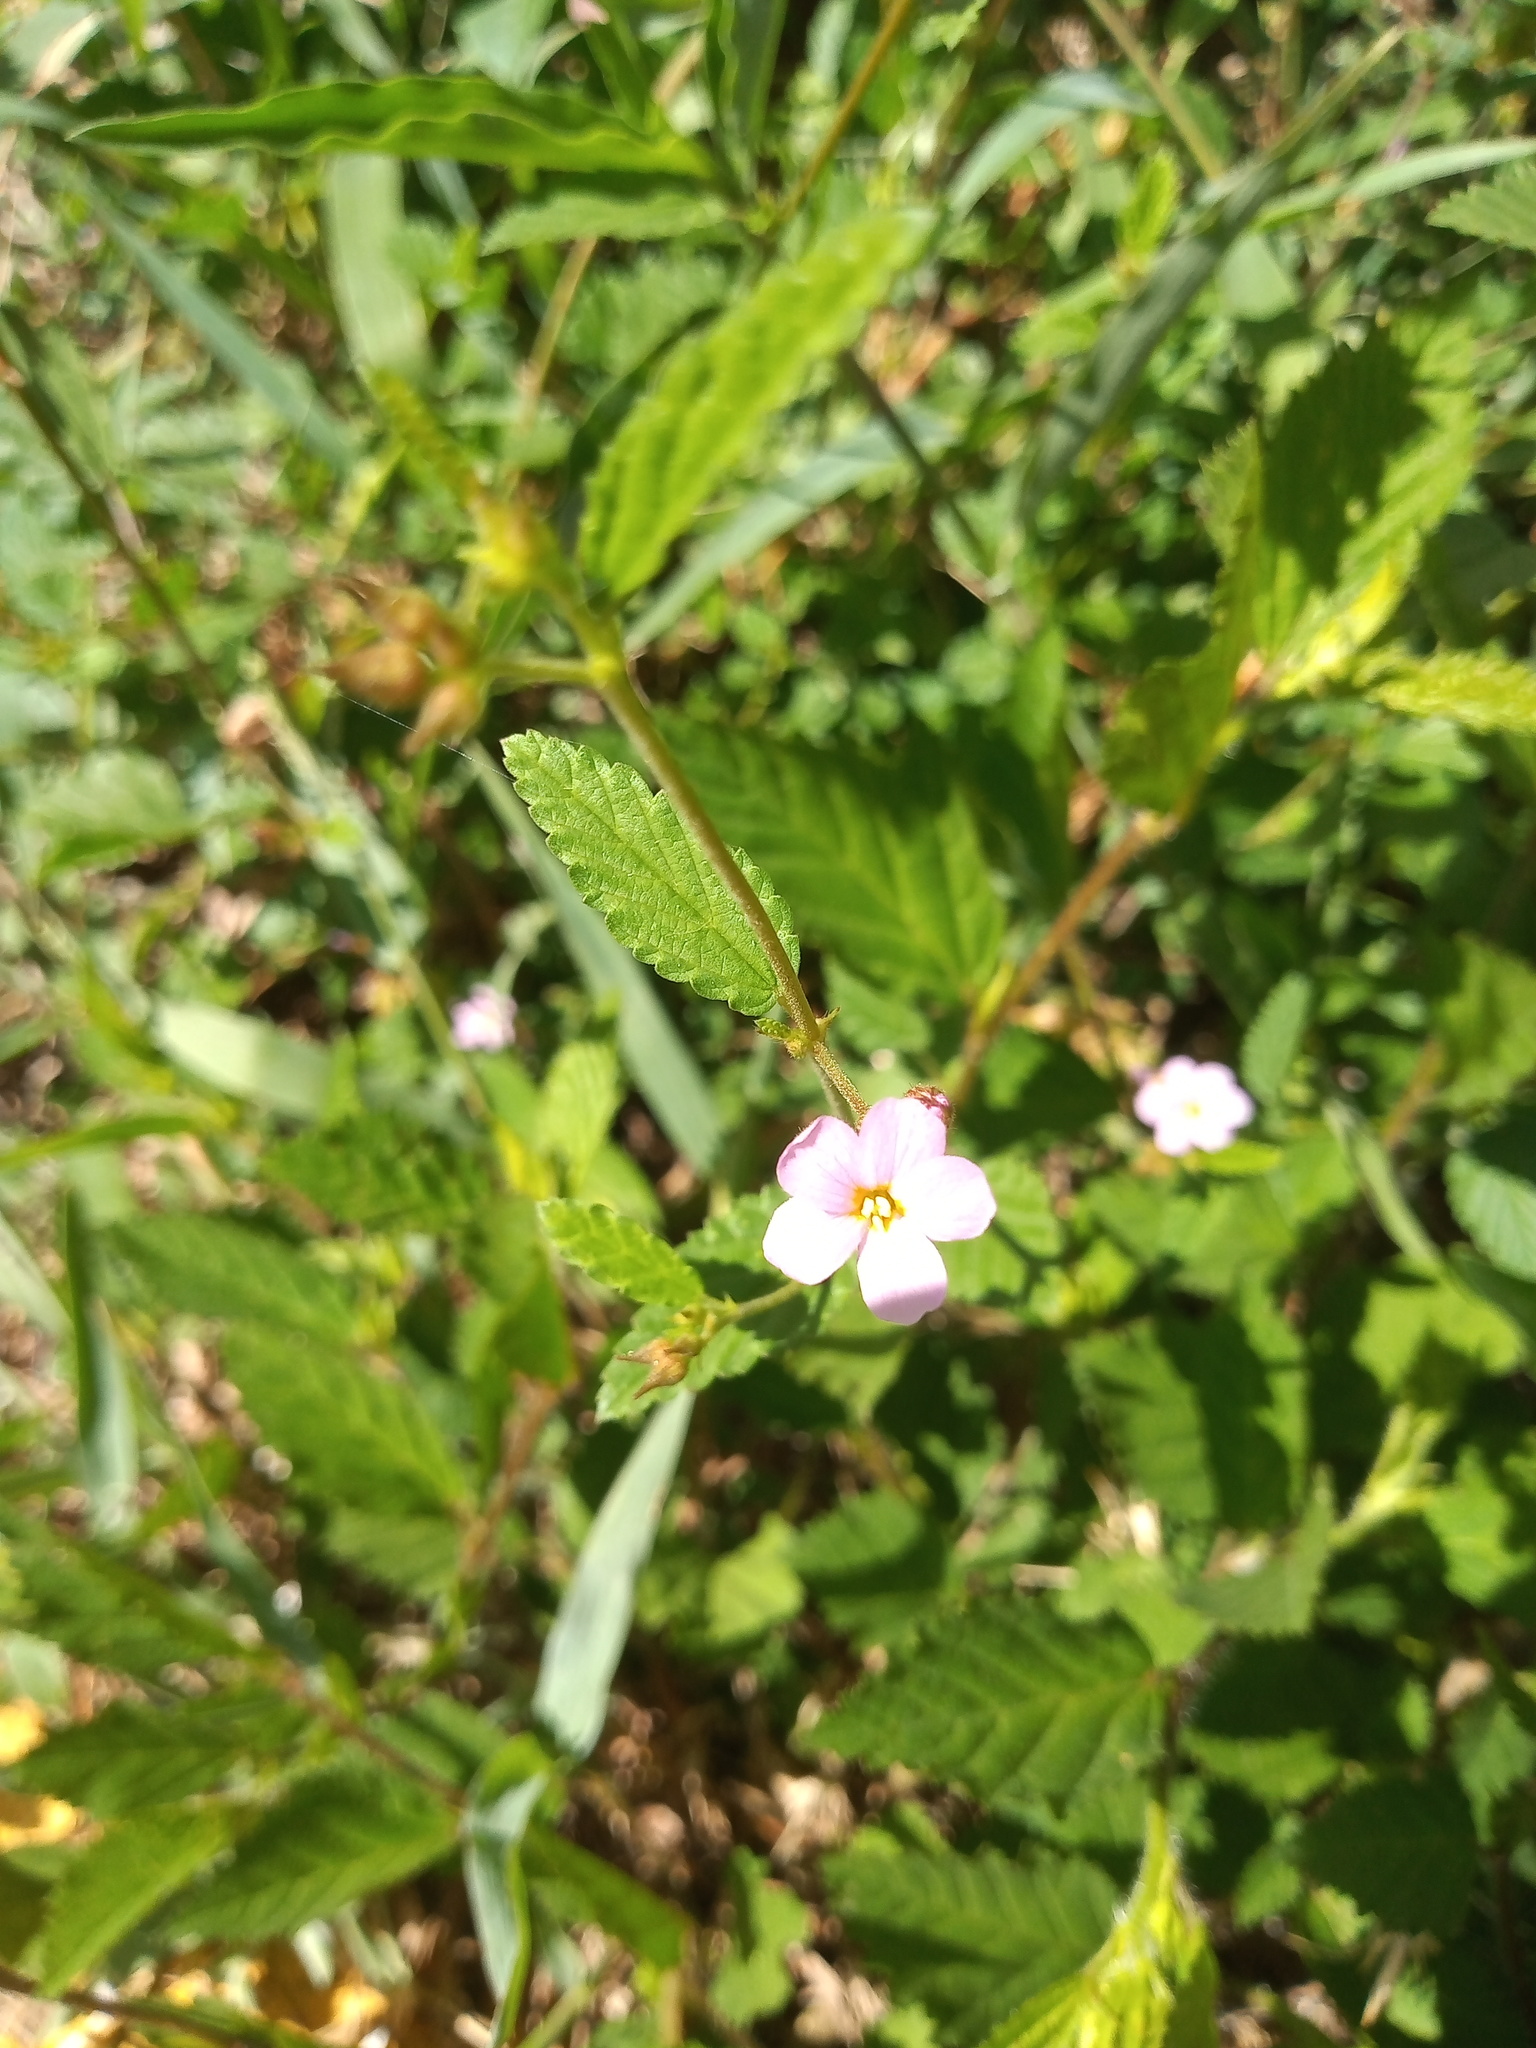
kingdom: Plantae
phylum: Tracheophyta
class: Magnoliopsida
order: Malvales
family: Malvaceae
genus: Melochia
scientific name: Melochia pyramidata
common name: Pyramidflower
